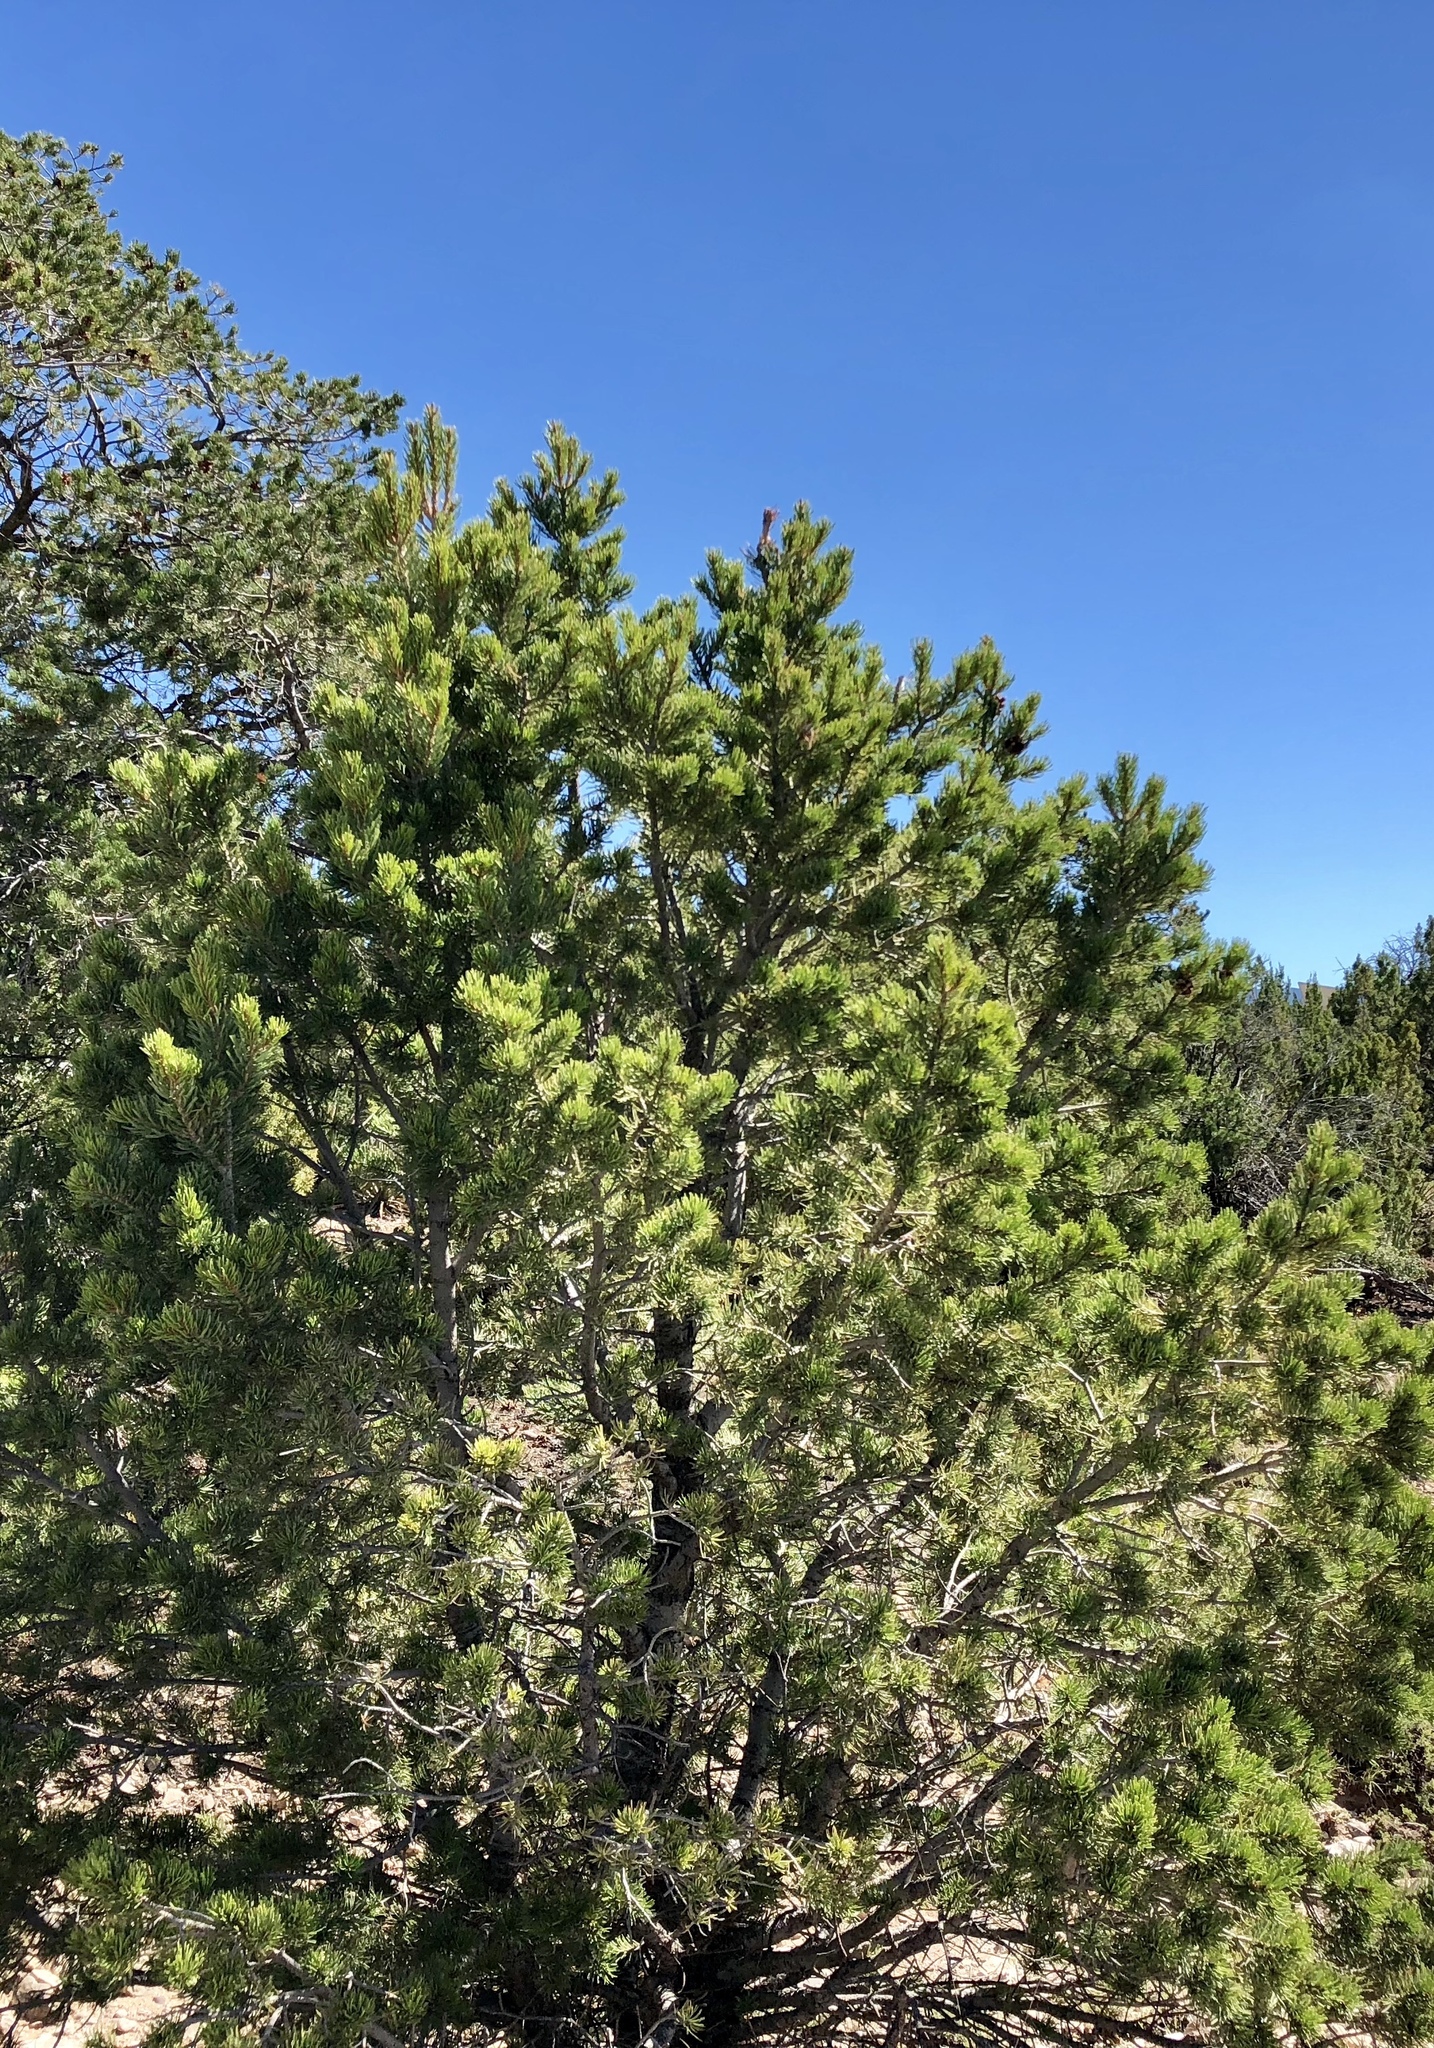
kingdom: Plantae
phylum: Tracheophyta
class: Pinopsida
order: Pinales
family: Pinaceae
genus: Pinus
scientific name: Pinus edulis
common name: Colorado pinyon
